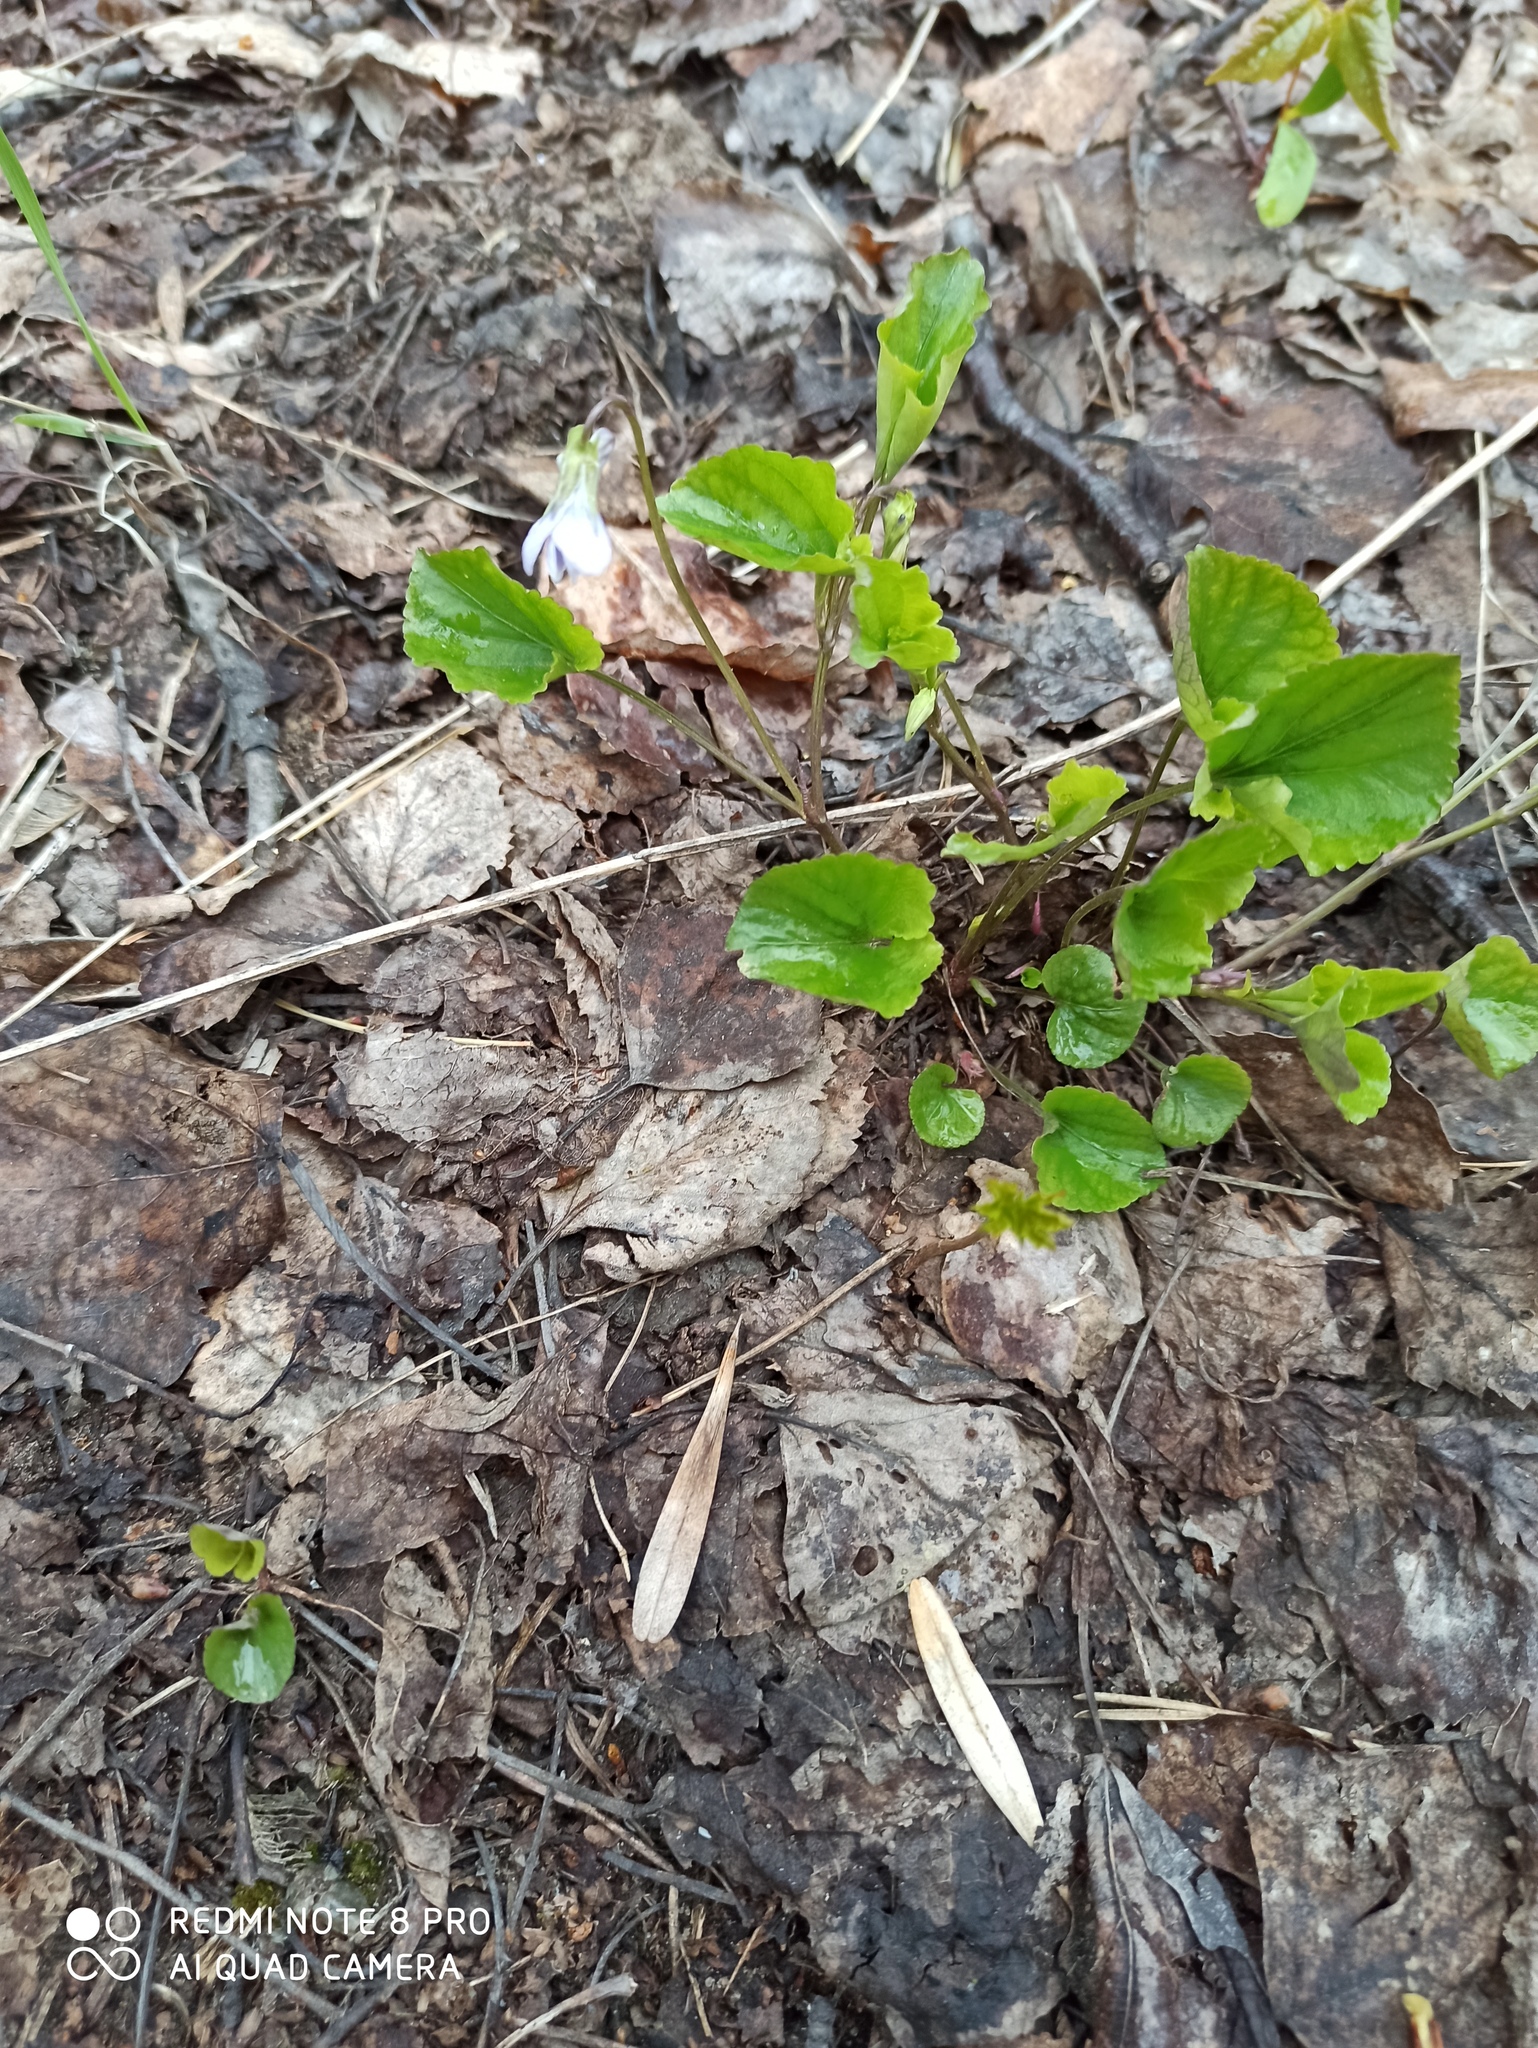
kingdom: Plantae
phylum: Tracheophyta
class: Magnoliopsida
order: Malpighiales
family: Violaceae
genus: Viola
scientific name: Viola riviniana
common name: Common dog-violet
